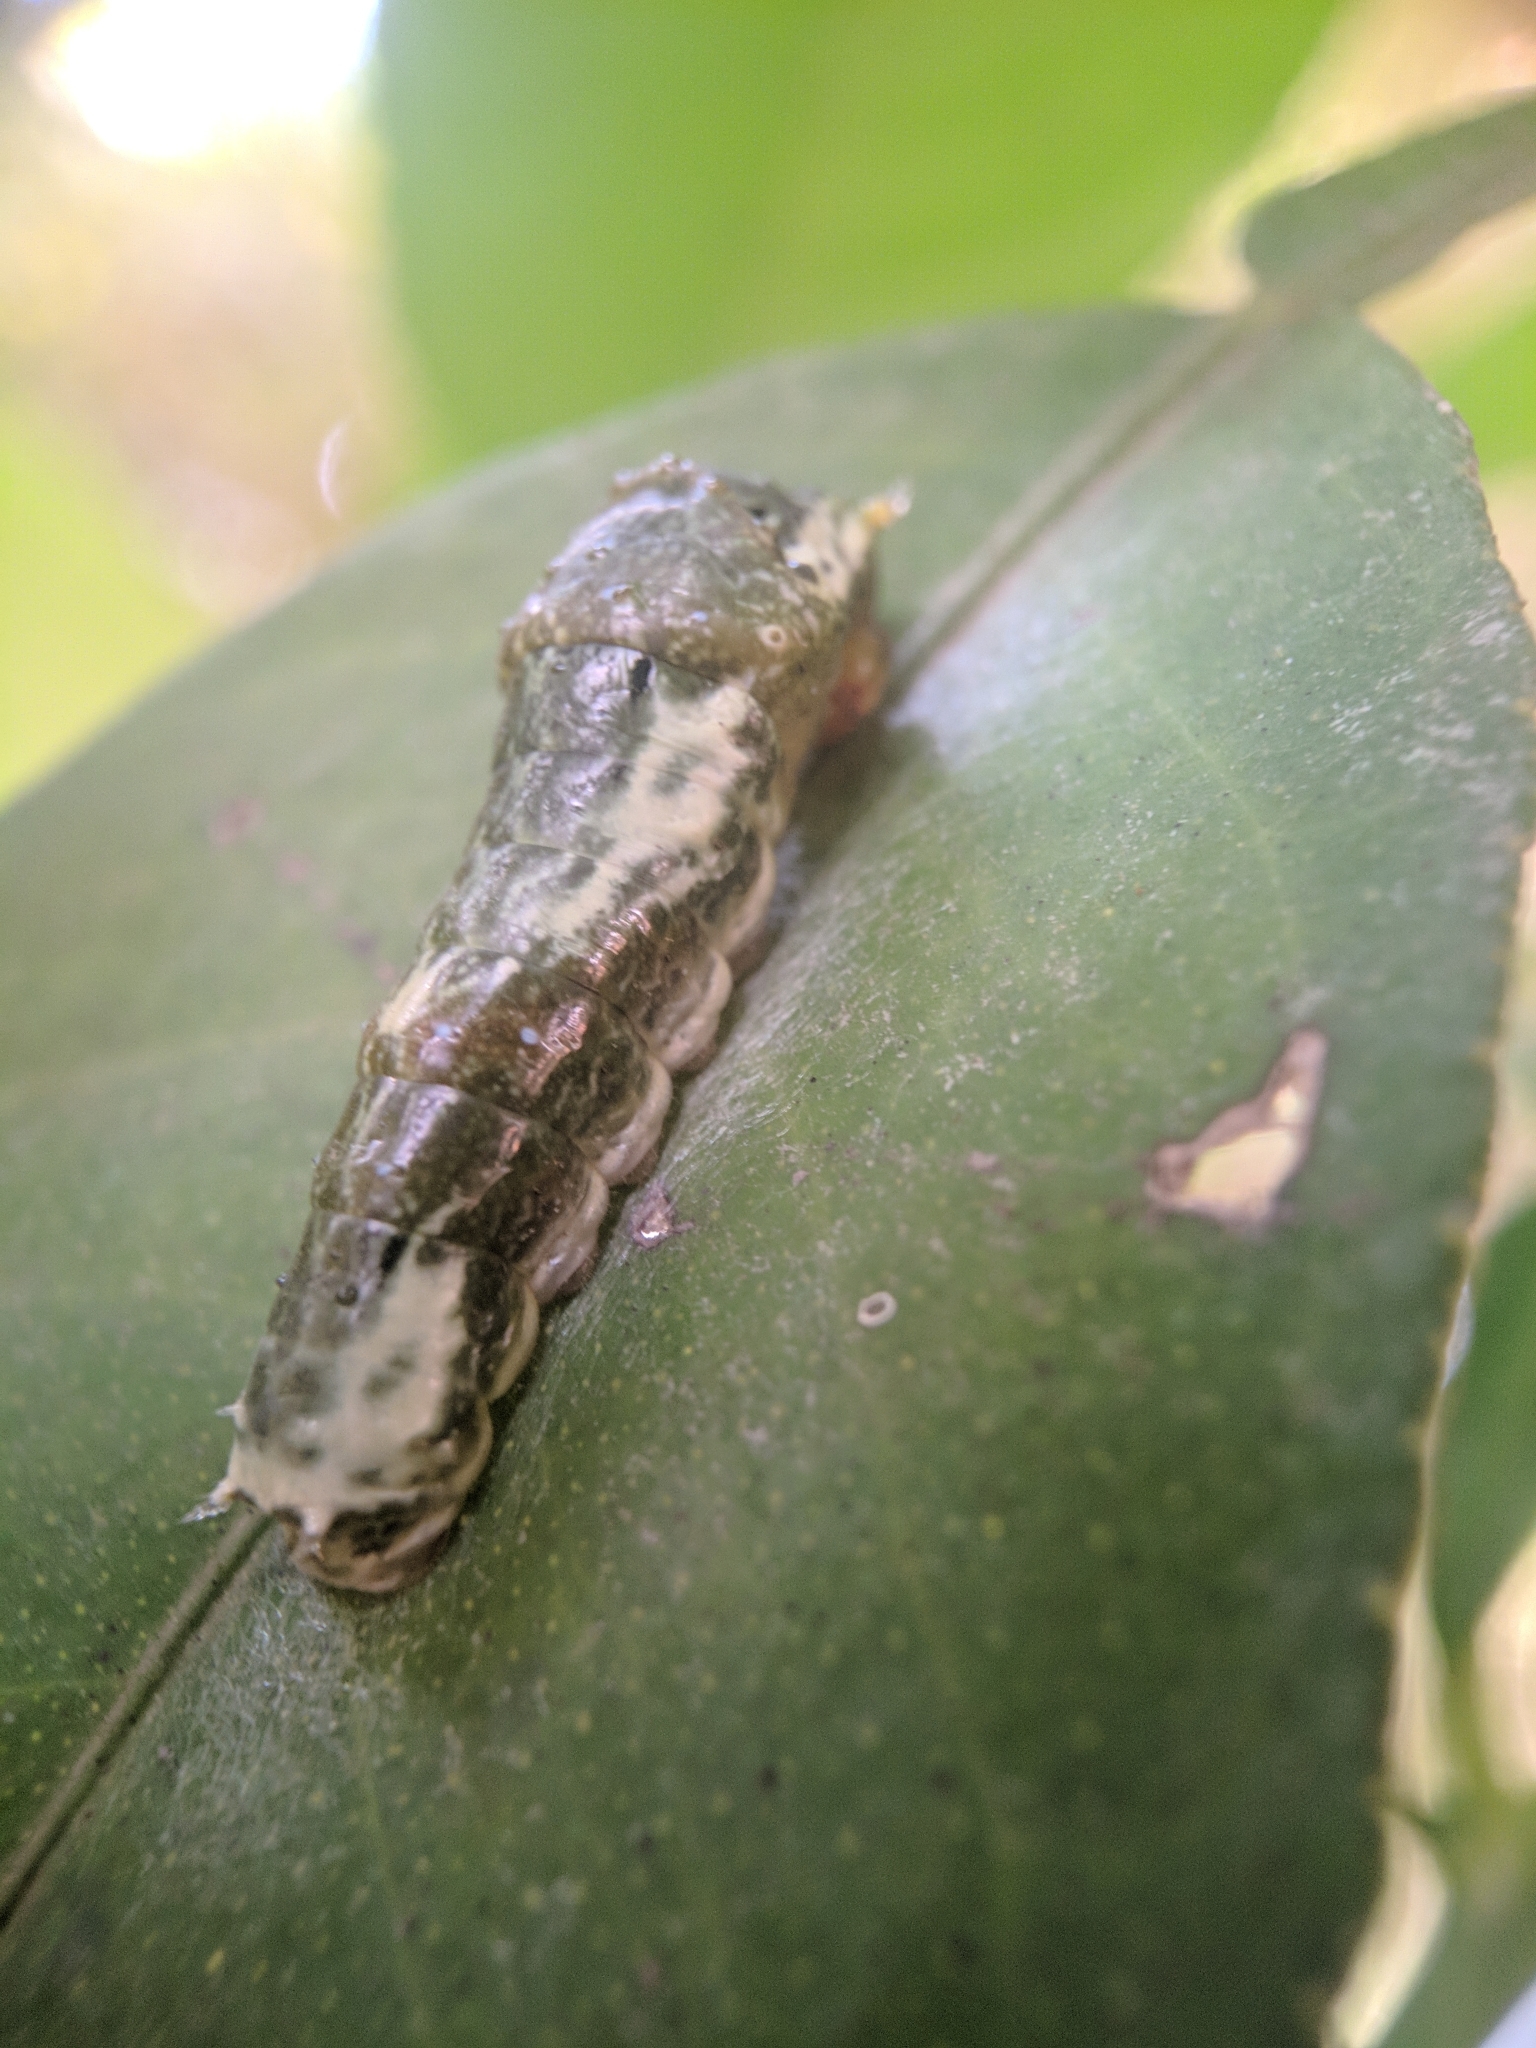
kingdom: Animalia
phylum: Arthropoda
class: Insecta
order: Lepidoptera
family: Papilionidae
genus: Papilio
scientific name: Papilio polytes
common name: Common mormon
